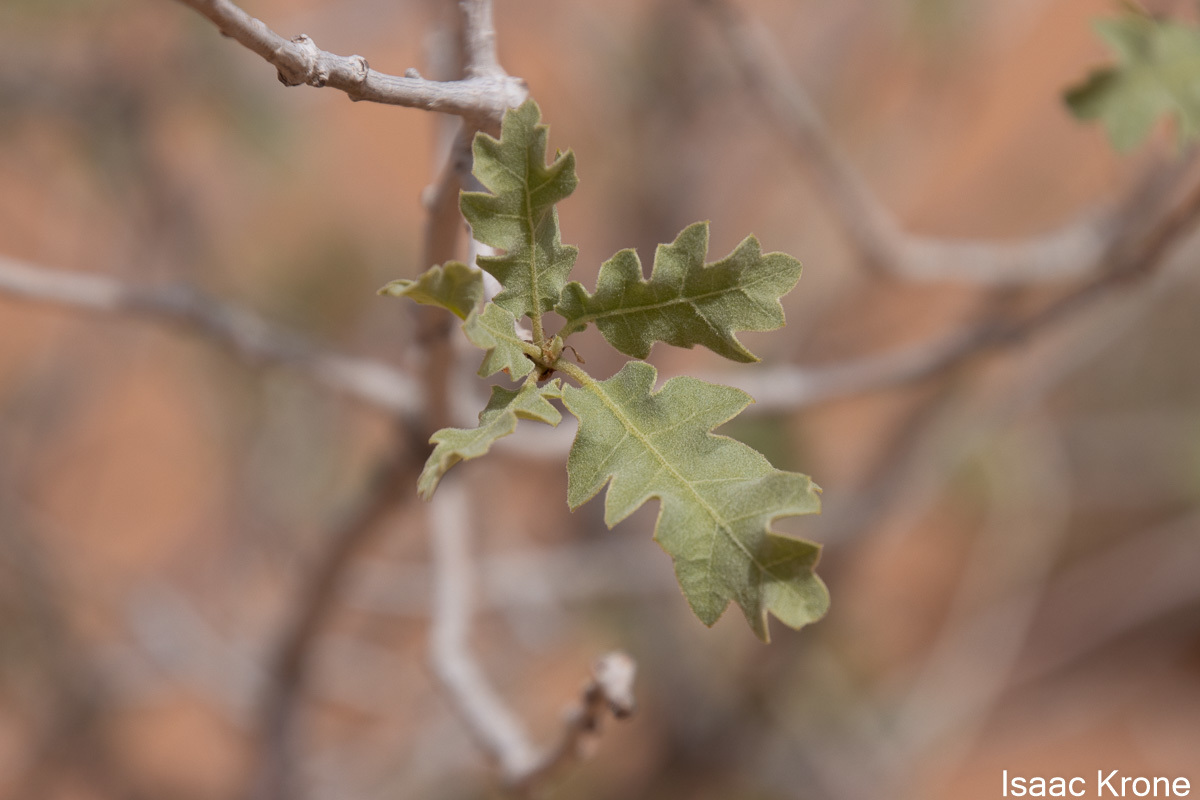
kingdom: Plantae
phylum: Tracheophyta
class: Magnoliopsida
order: Fagales
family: Fagaceae
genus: Quercus
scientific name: Quercus welshii
